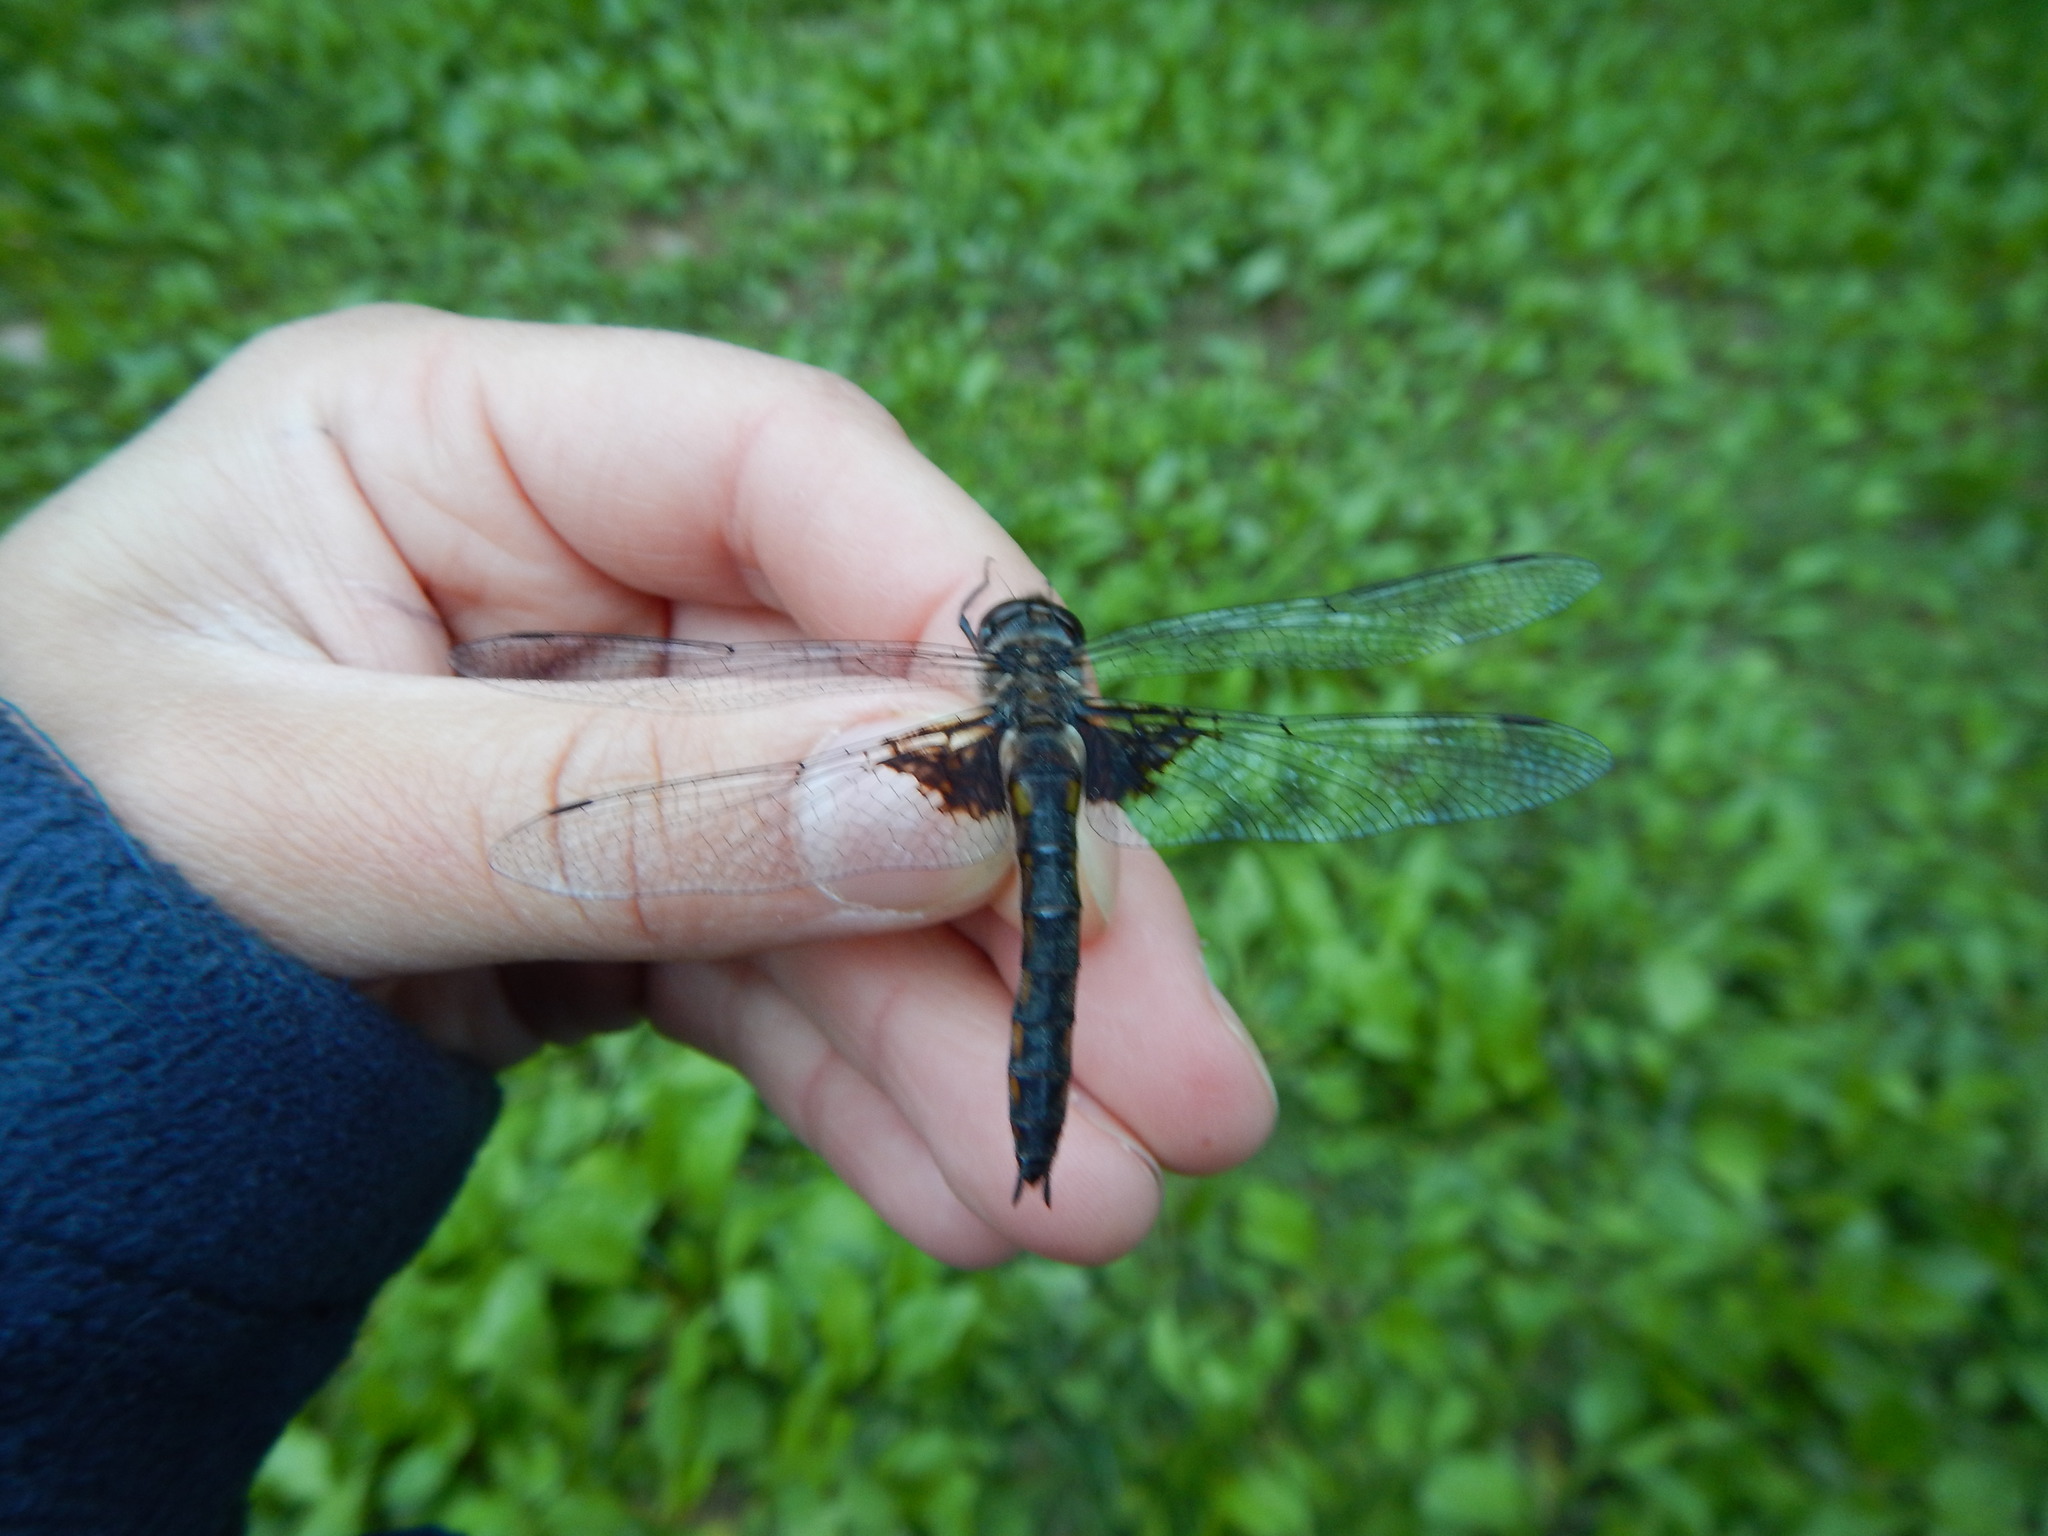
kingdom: Animalia
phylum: Arthropoda
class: Insecta
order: Odonata
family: Corduliidae
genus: Epitheca
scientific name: Epitheca cynosura
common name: Common baskettail
